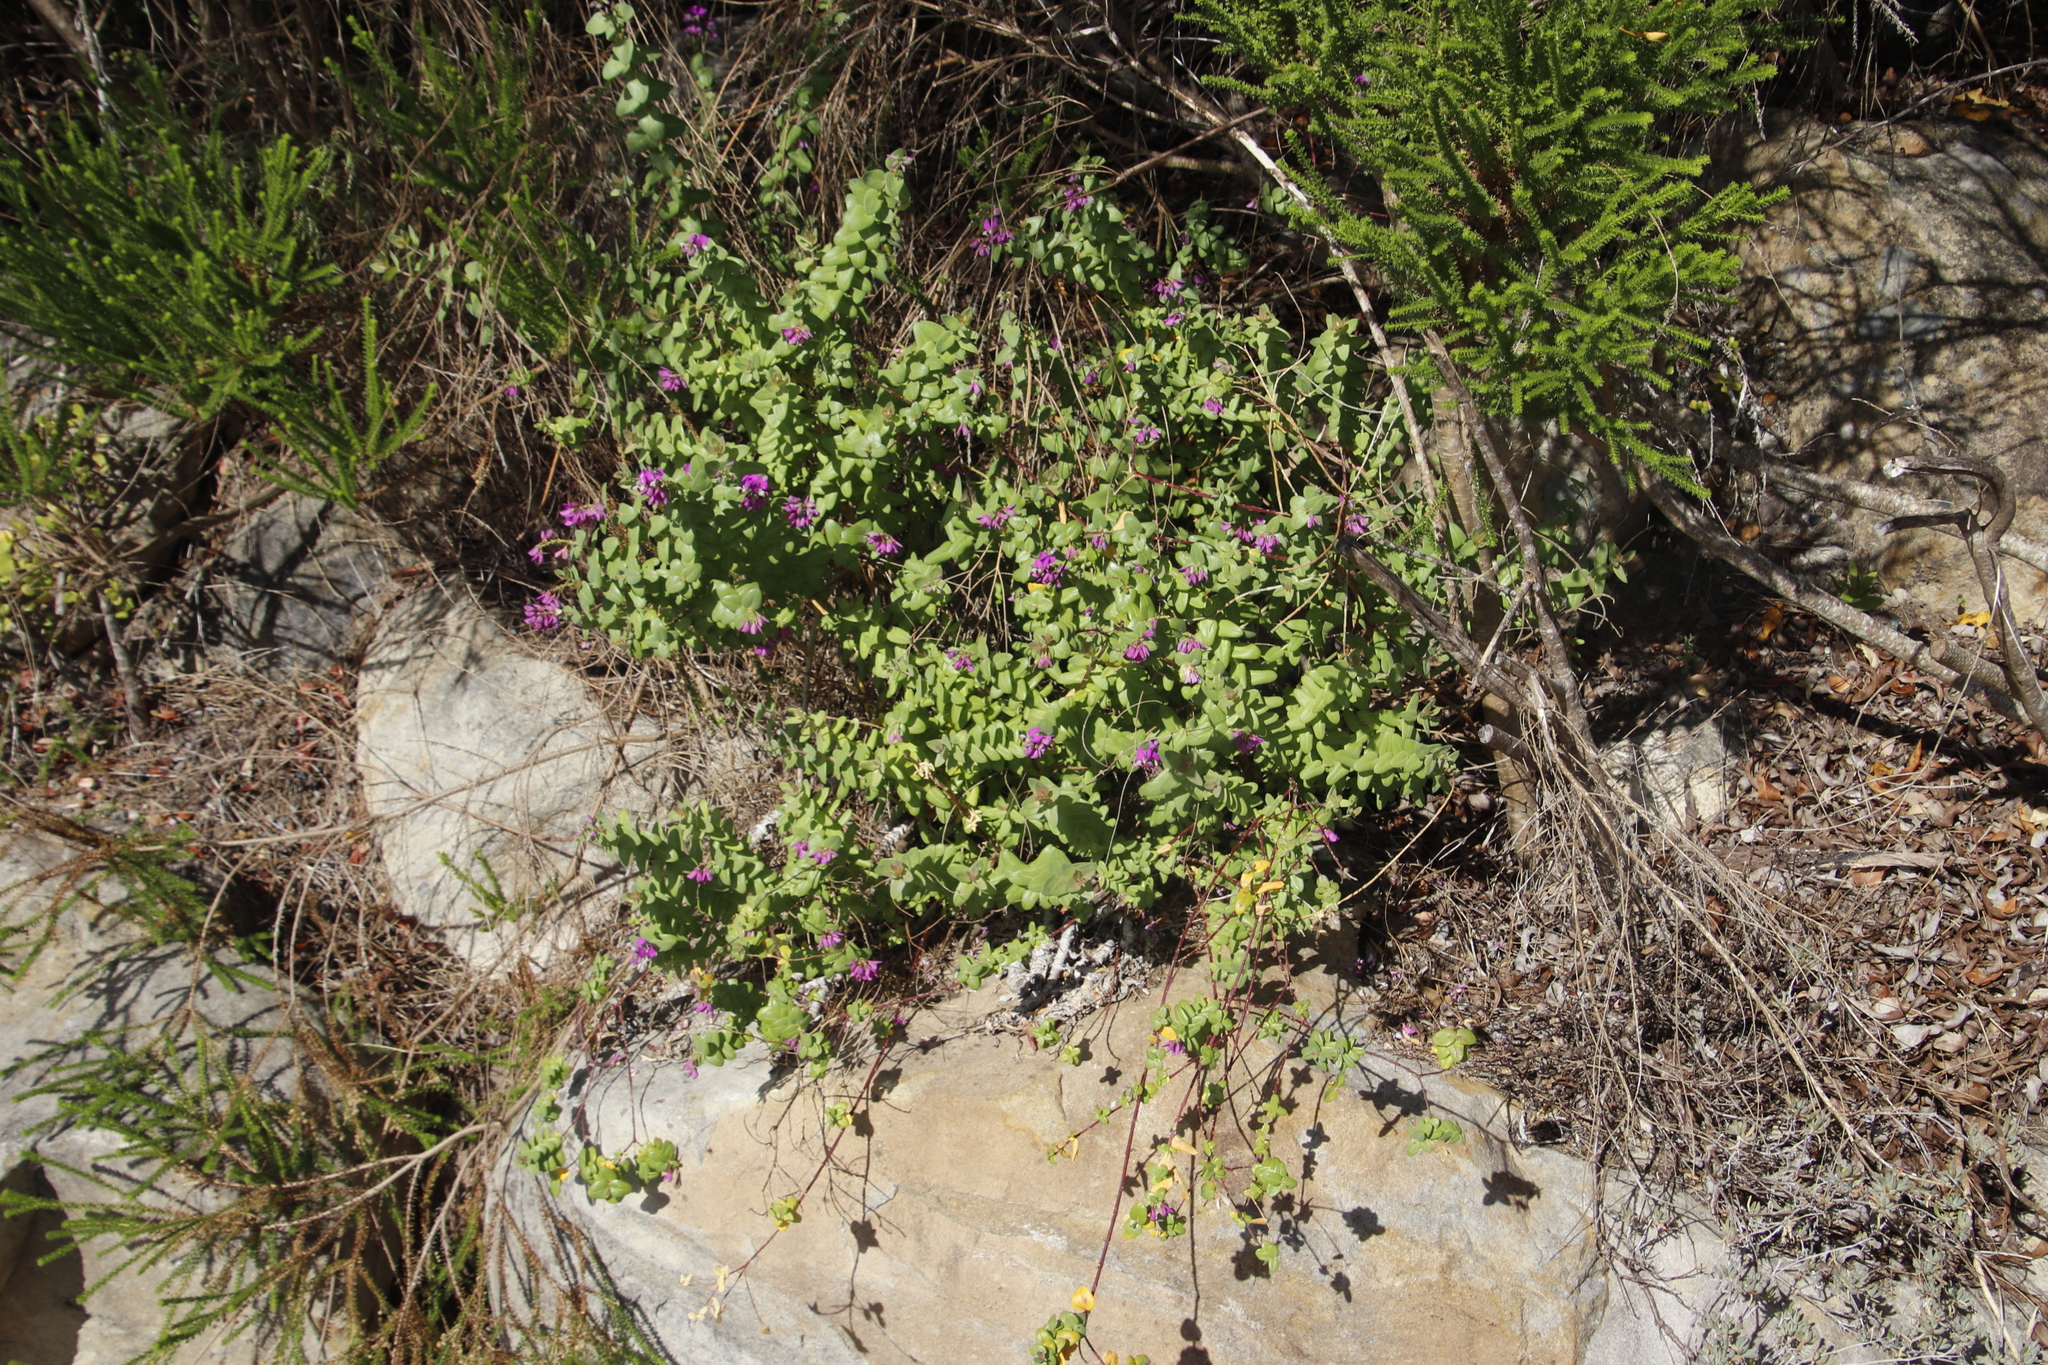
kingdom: Plantae
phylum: Tracheophyta
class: Magnoliopsida
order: Fabales
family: Polygalaceae
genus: Polygala
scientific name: Polygala fruticosa
